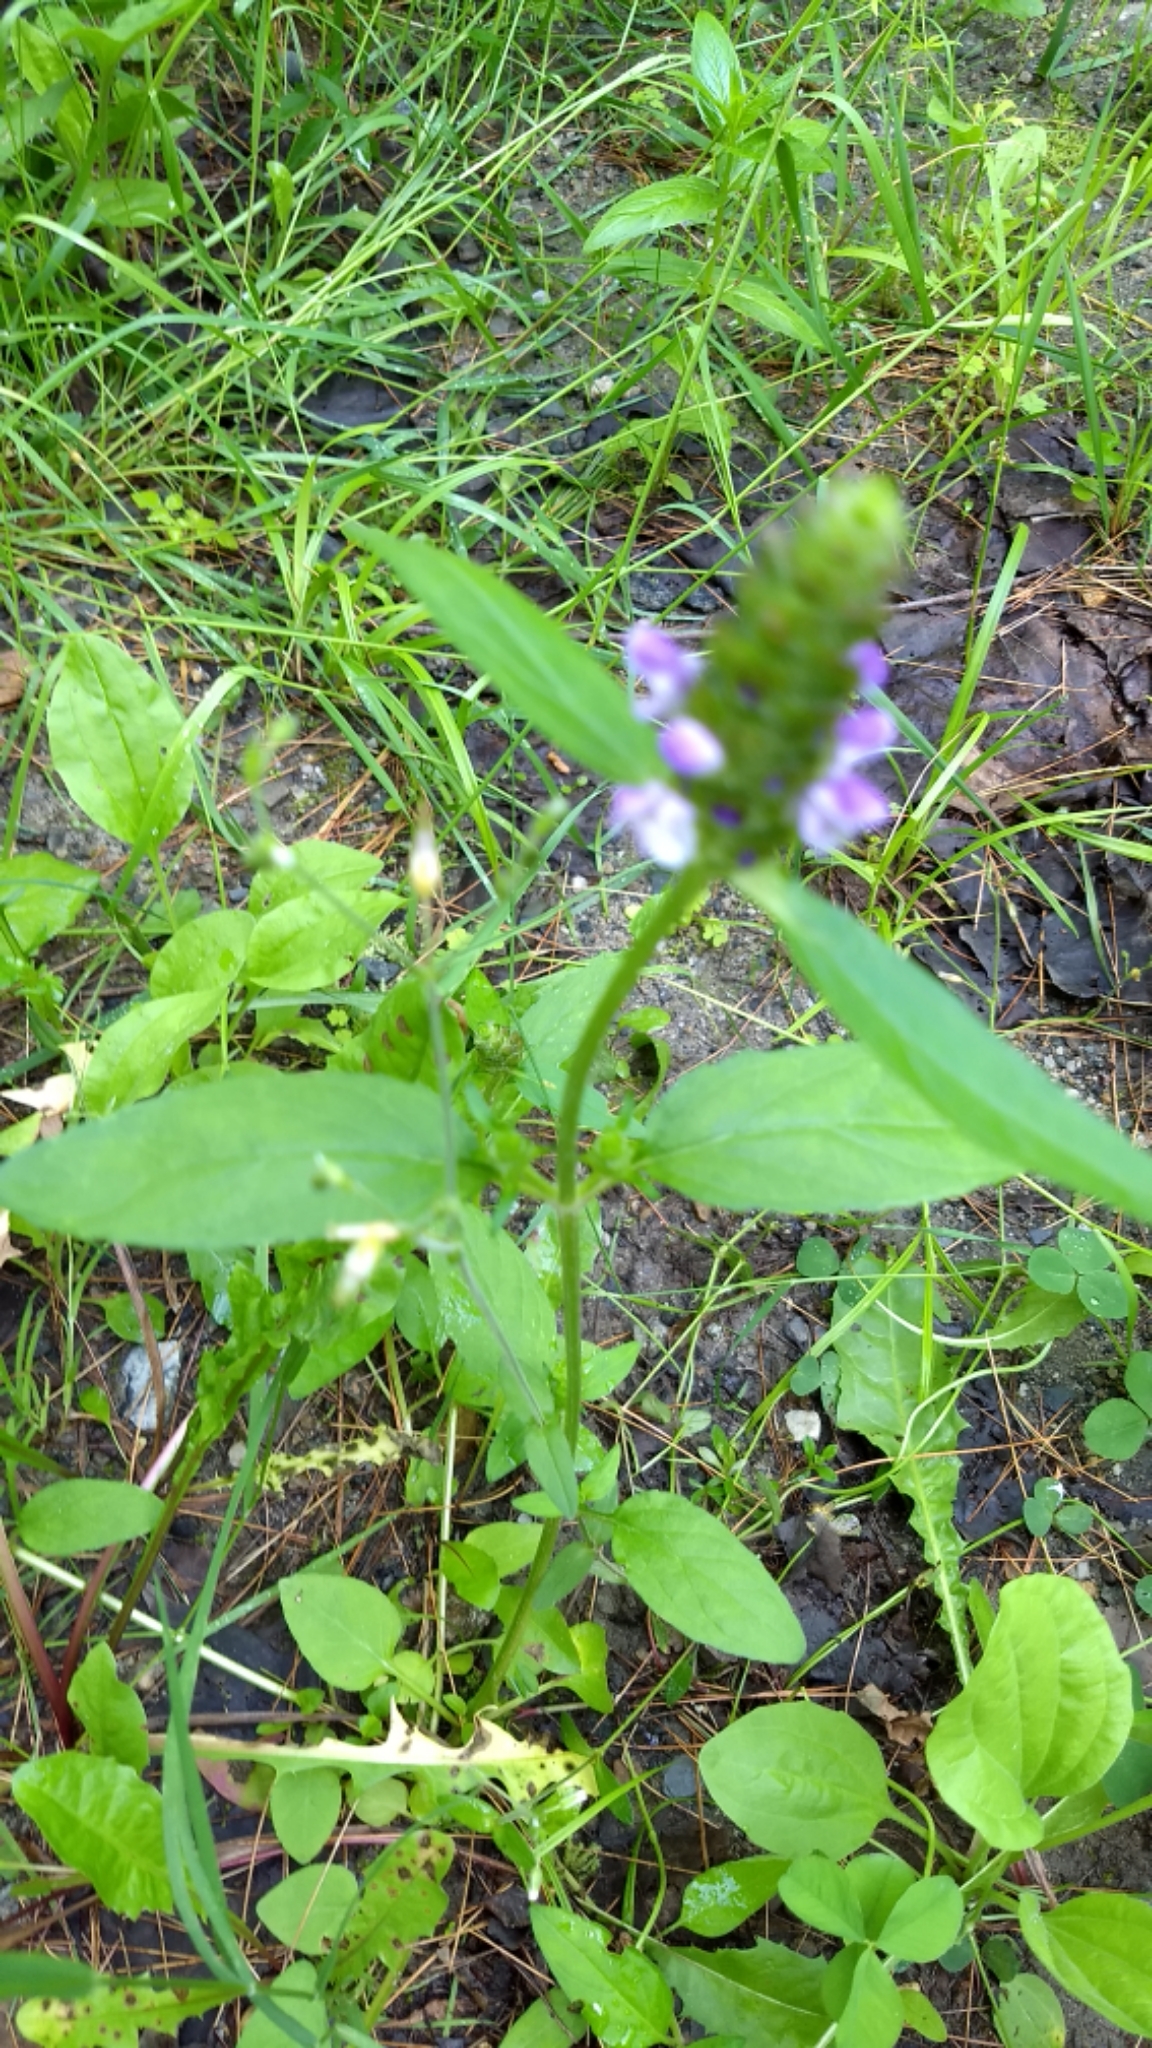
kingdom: Plantae
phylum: Tracheophyta
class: Magnoliopsida
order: Lamiales
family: Lamiaceae
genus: Prunella
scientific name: Prunella vulgaris
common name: Heal-all
